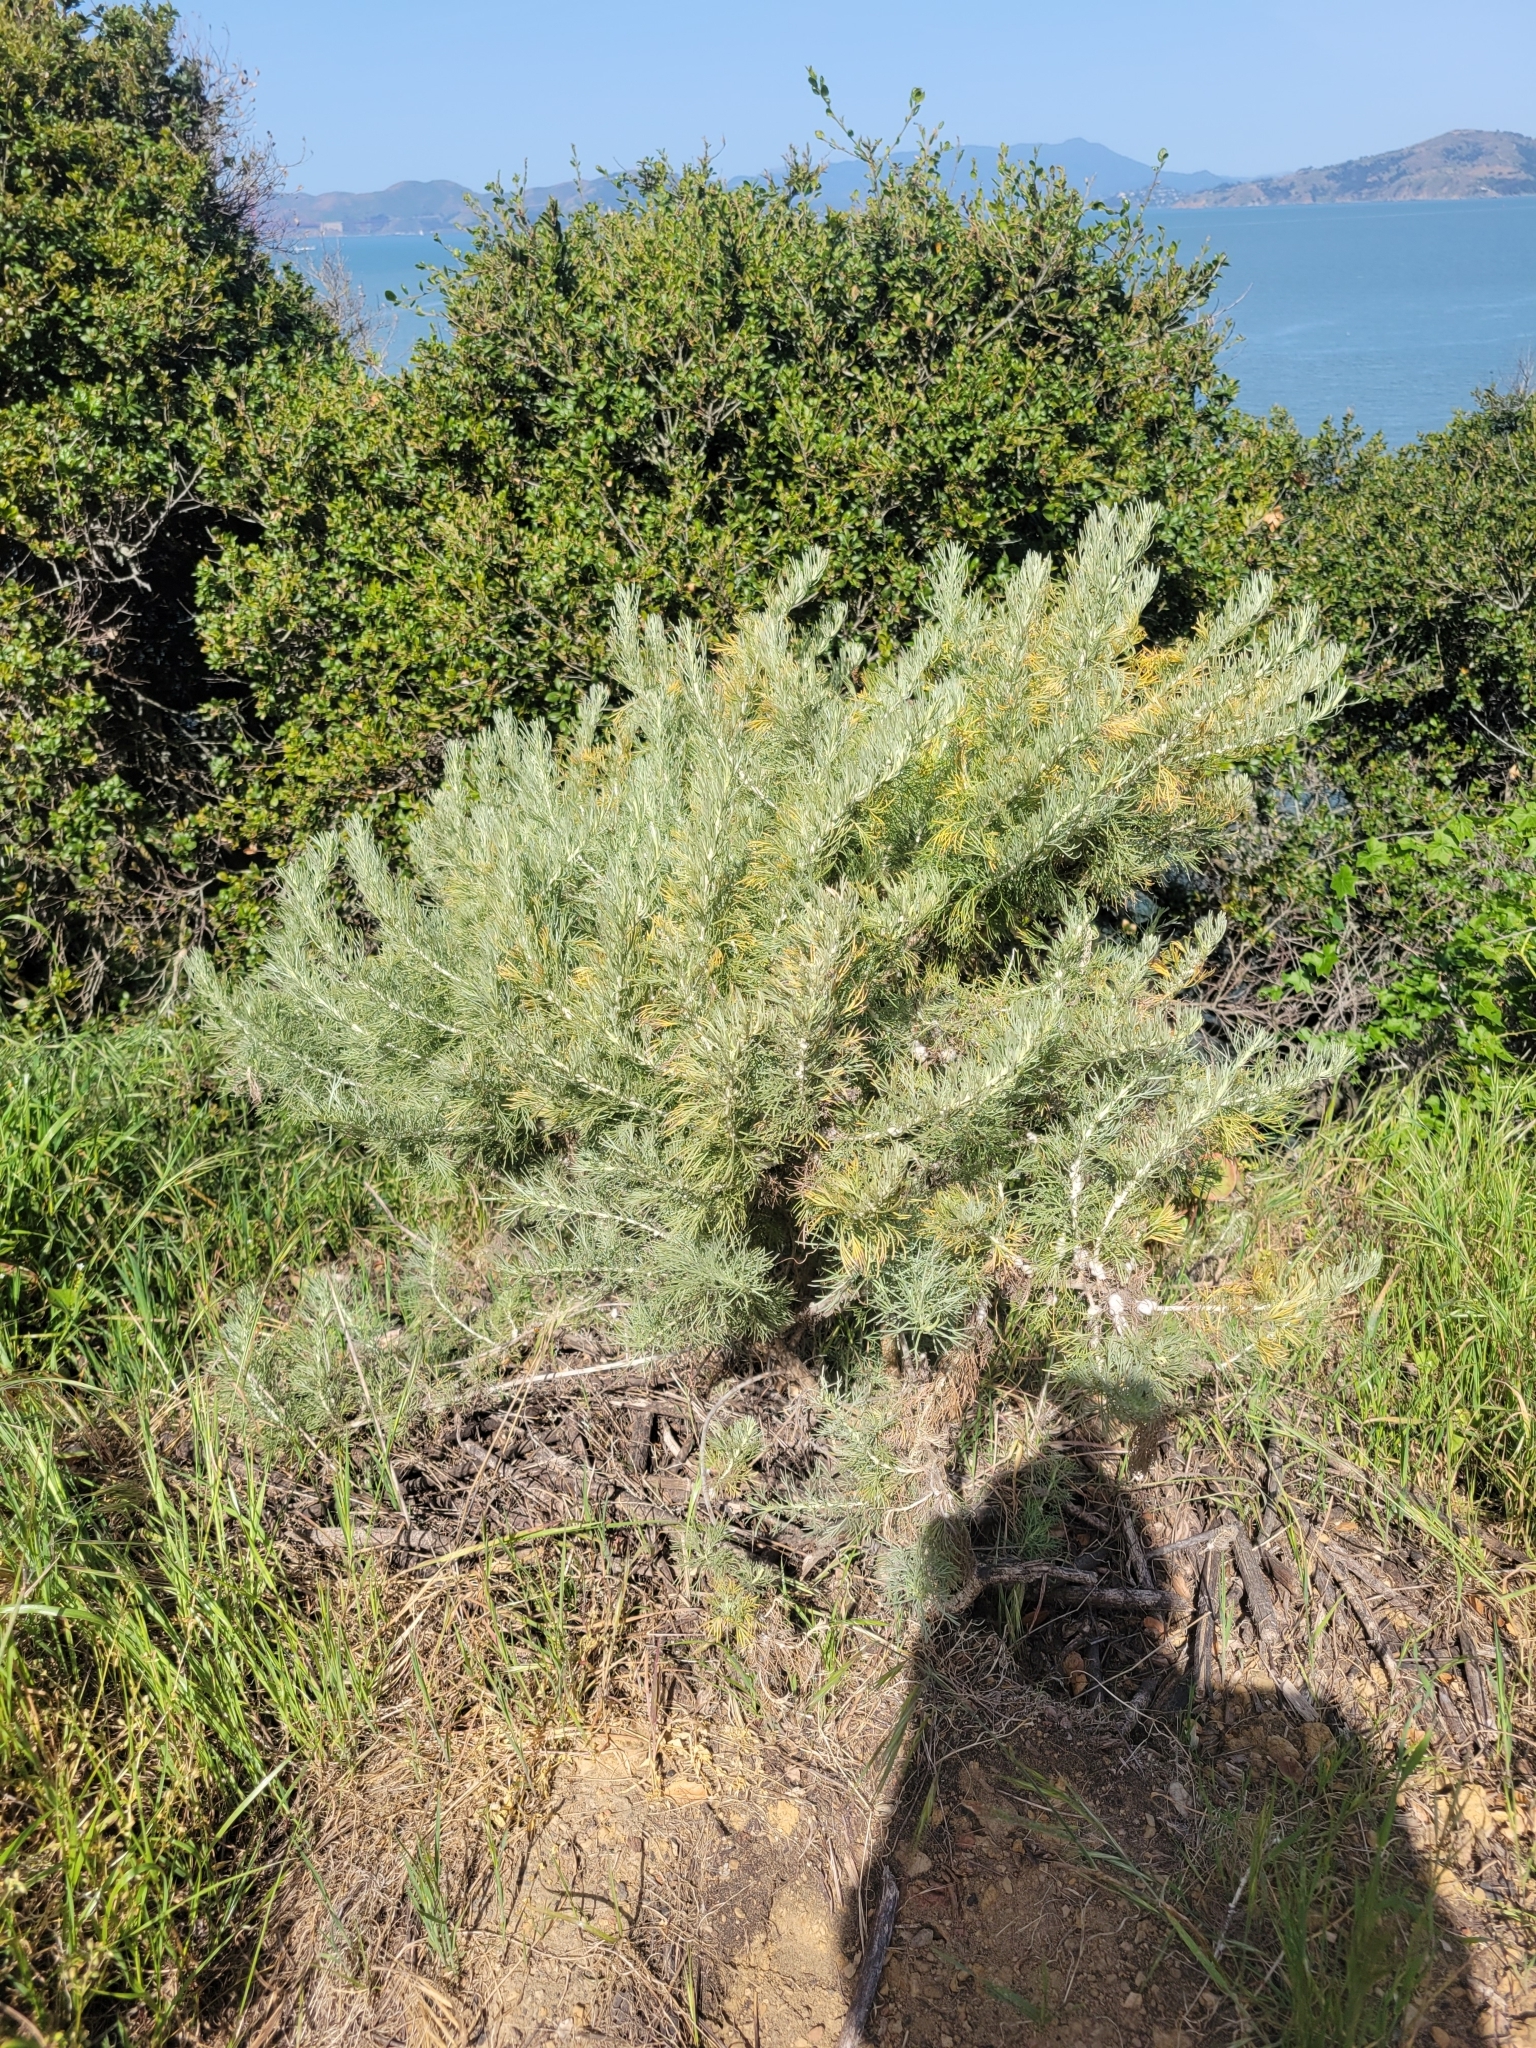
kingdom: Plantae
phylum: Tracheophyta
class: Magnoliopsida
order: Asterales
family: Asteraceae
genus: Artemisia
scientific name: Artemisia californica
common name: California sagebrush
